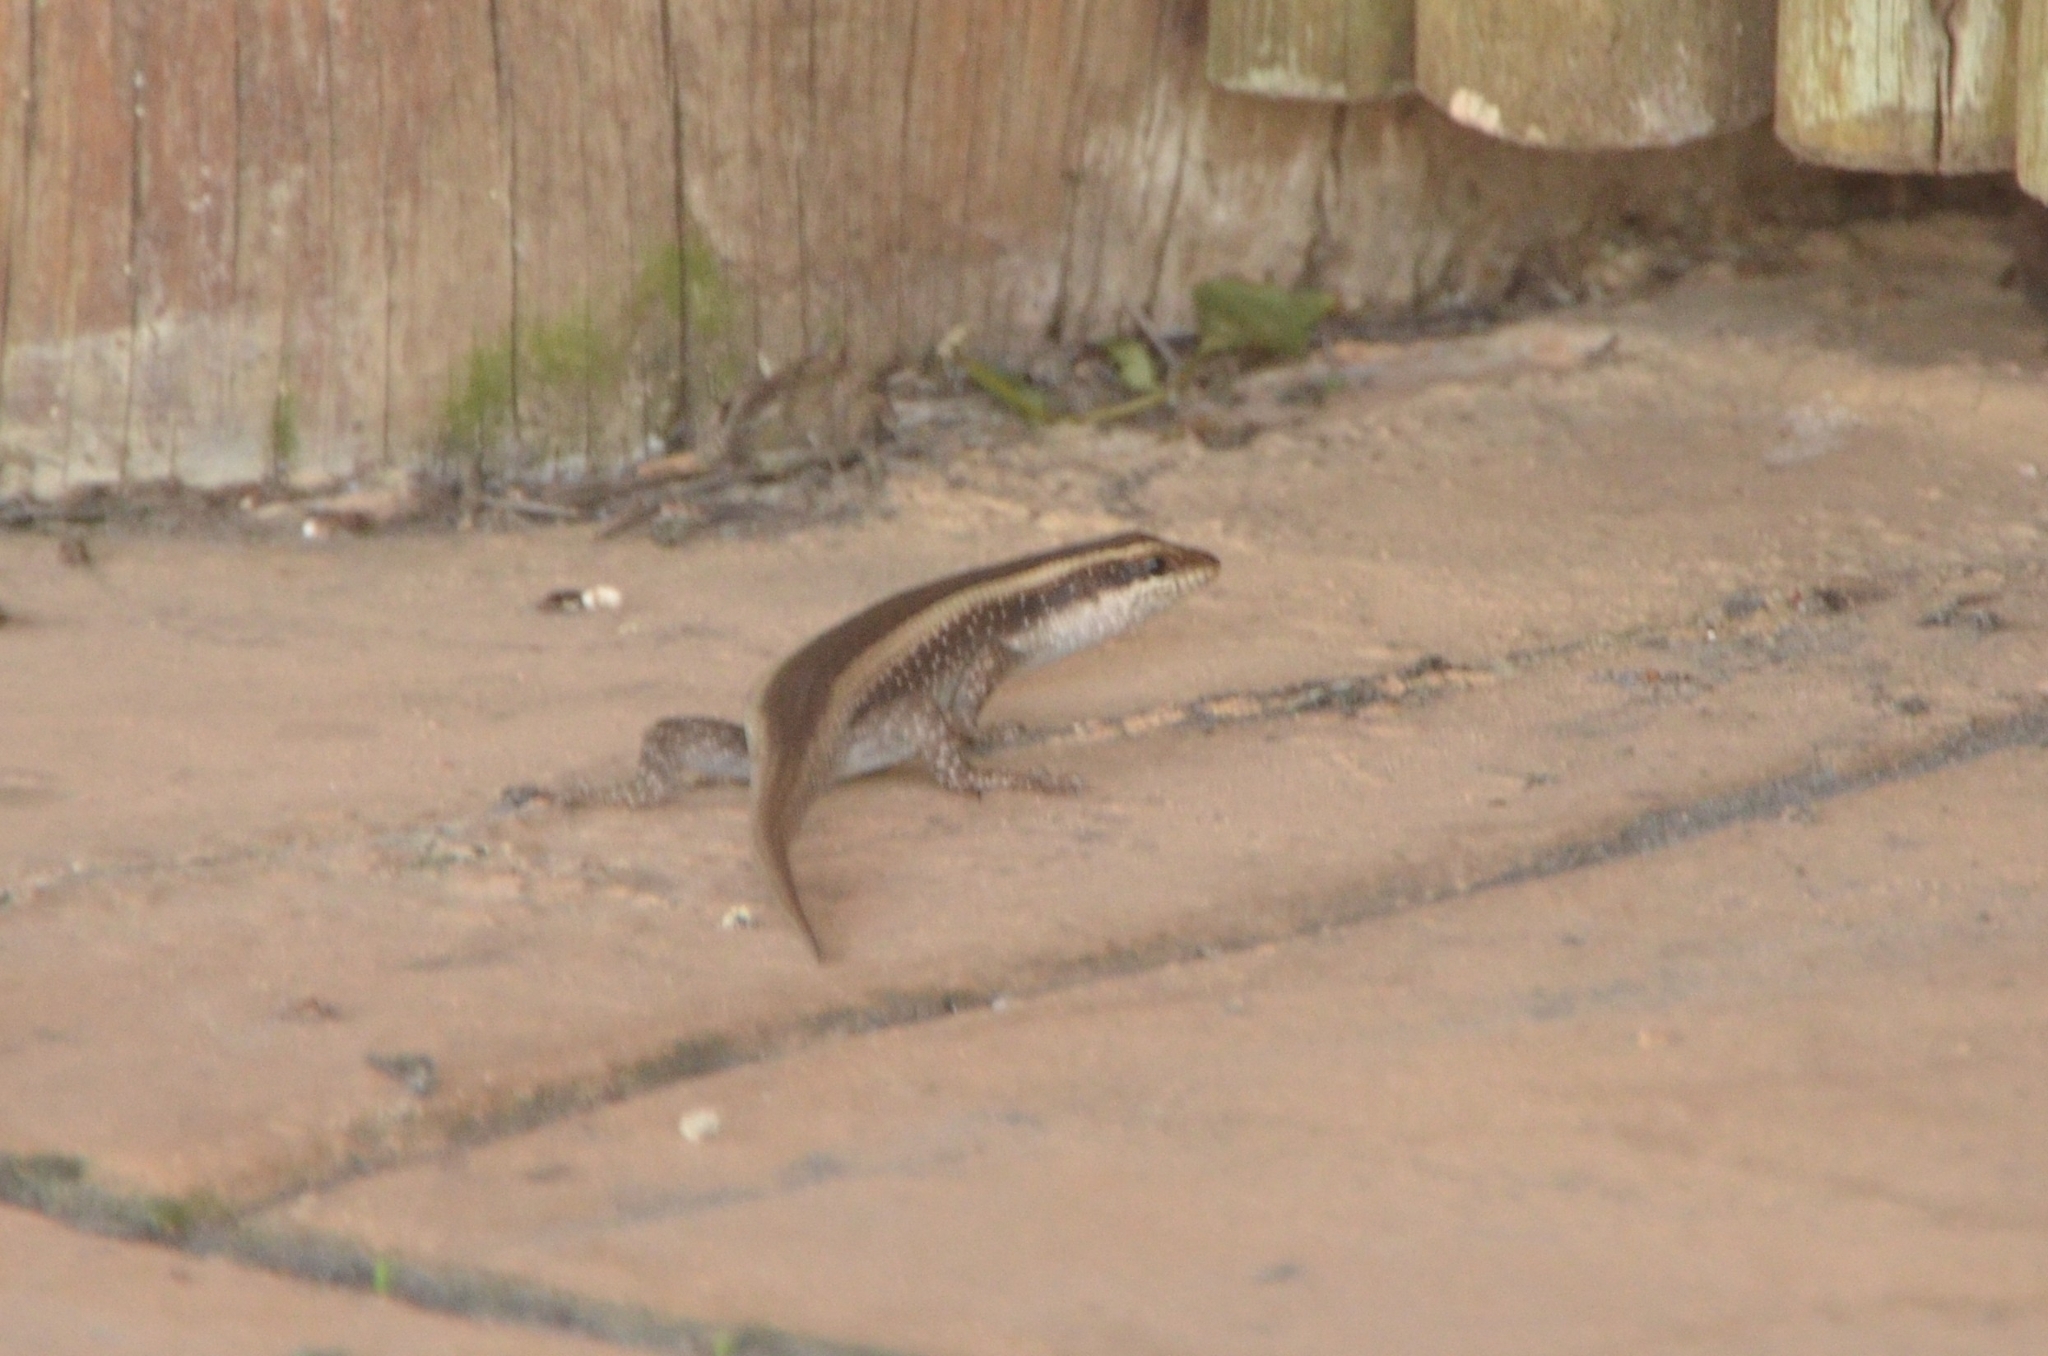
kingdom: Animalia
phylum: Chordata
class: Squamata
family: Scincidae
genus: Trachylepis
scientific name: Trachylepis striata
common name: African striped mabuya
